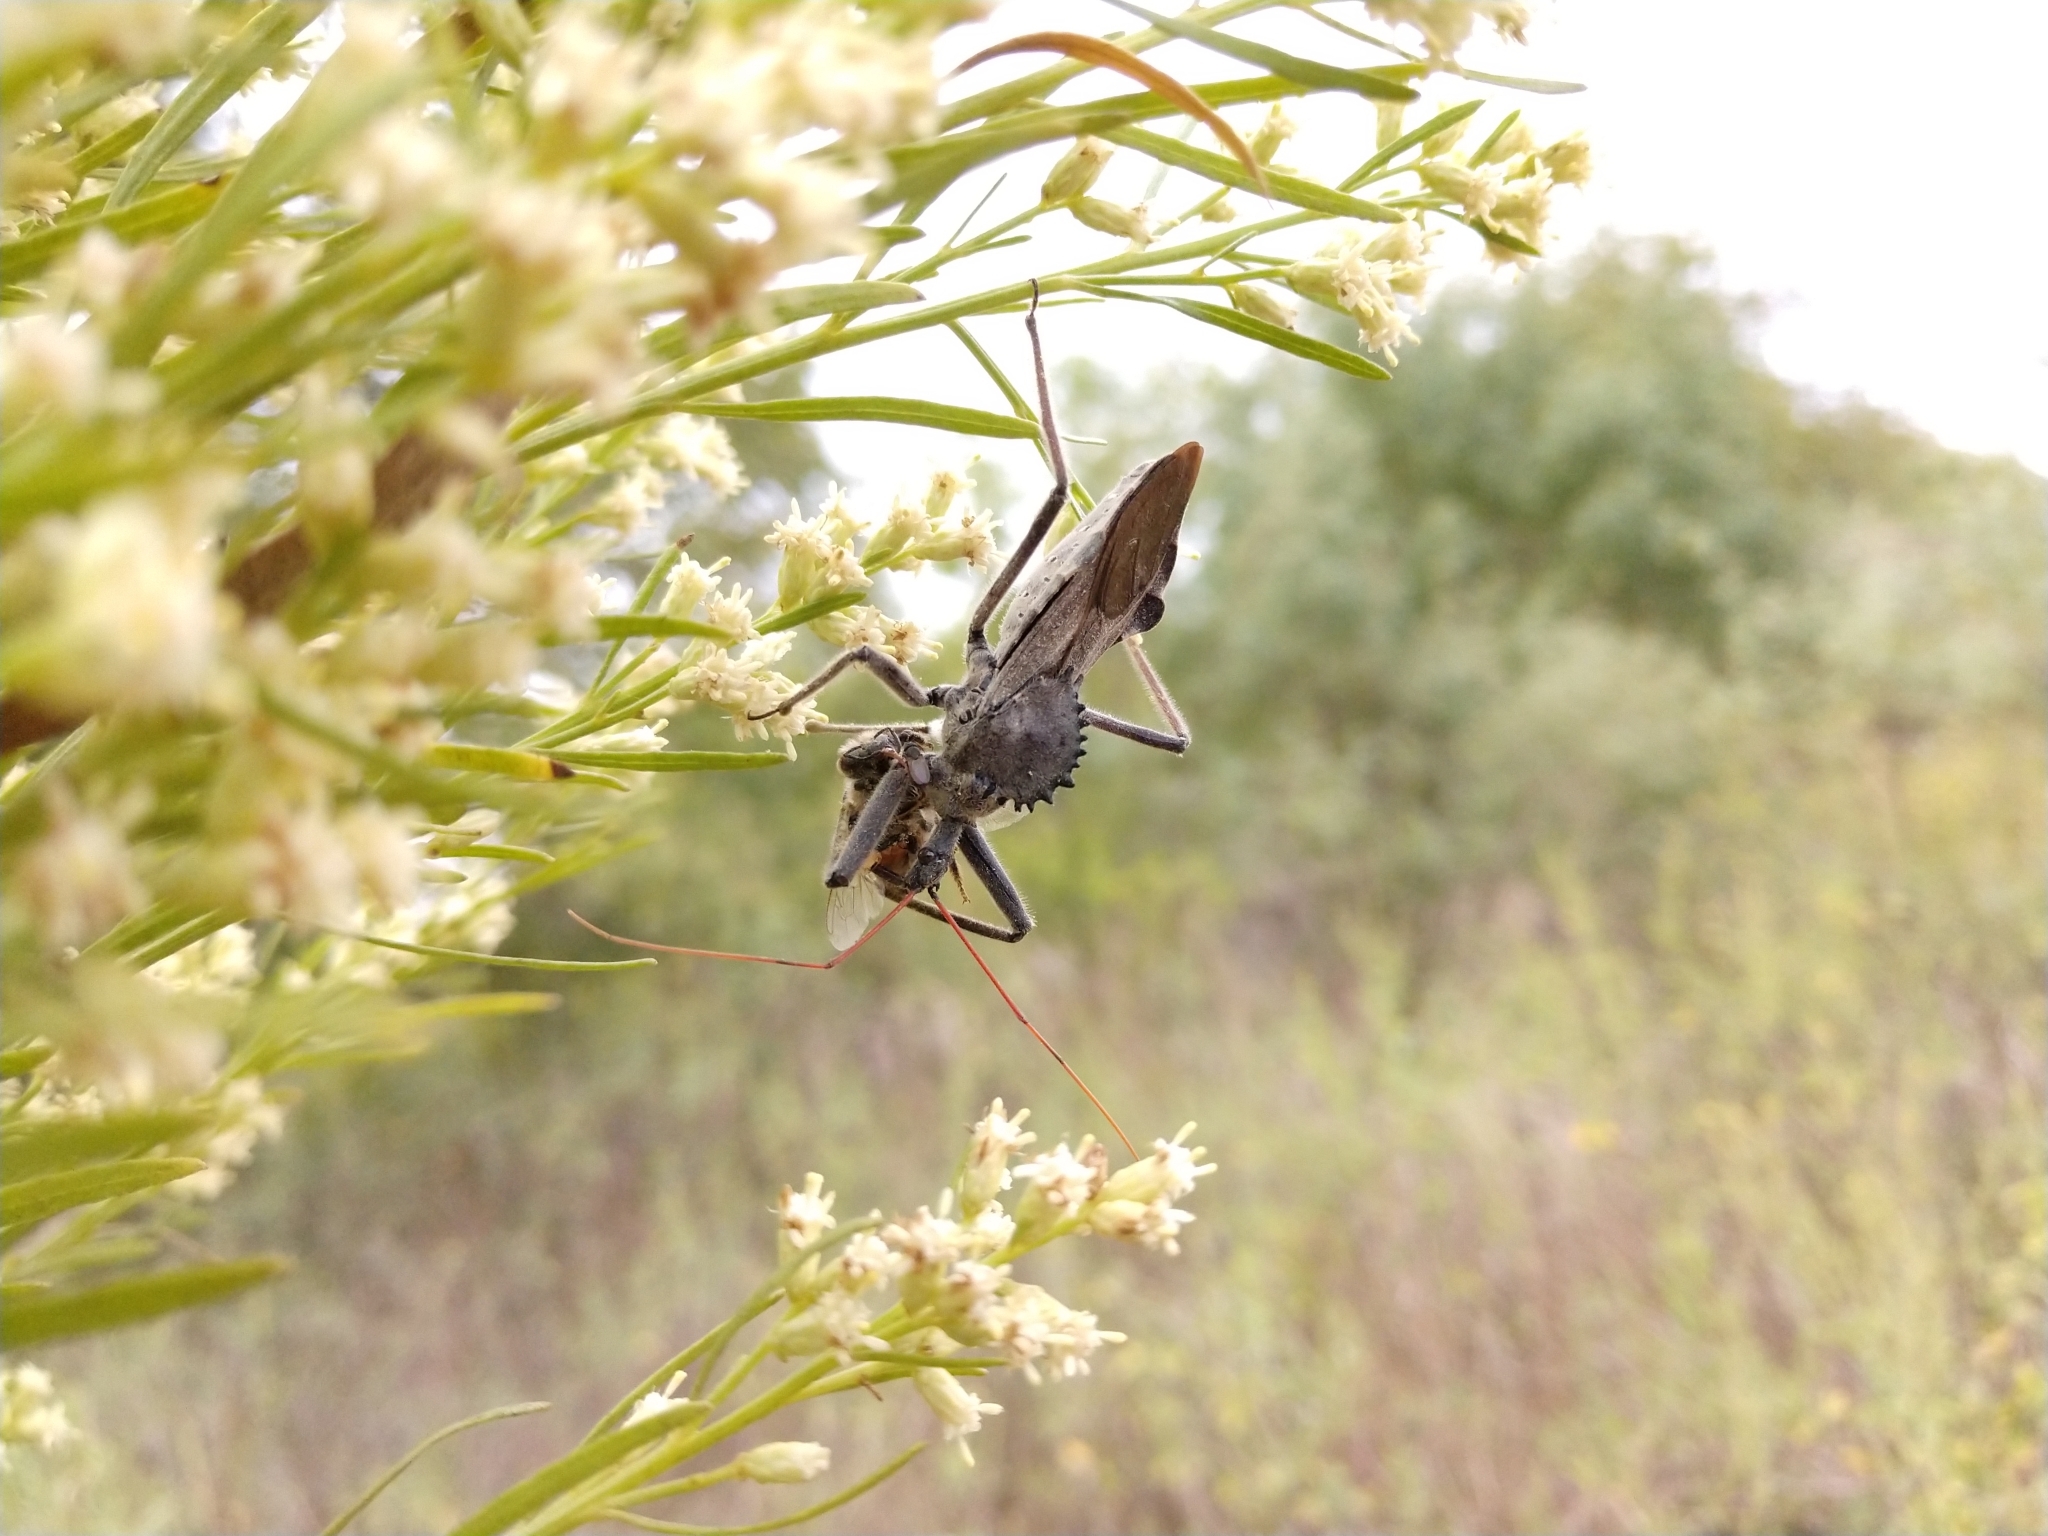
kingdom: Animalia
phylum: Arthropoda
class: Insecta
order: Hemiptera
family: Reduviidae
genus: Arilus
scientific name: Arilus cristatus
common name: North american wheel bug
